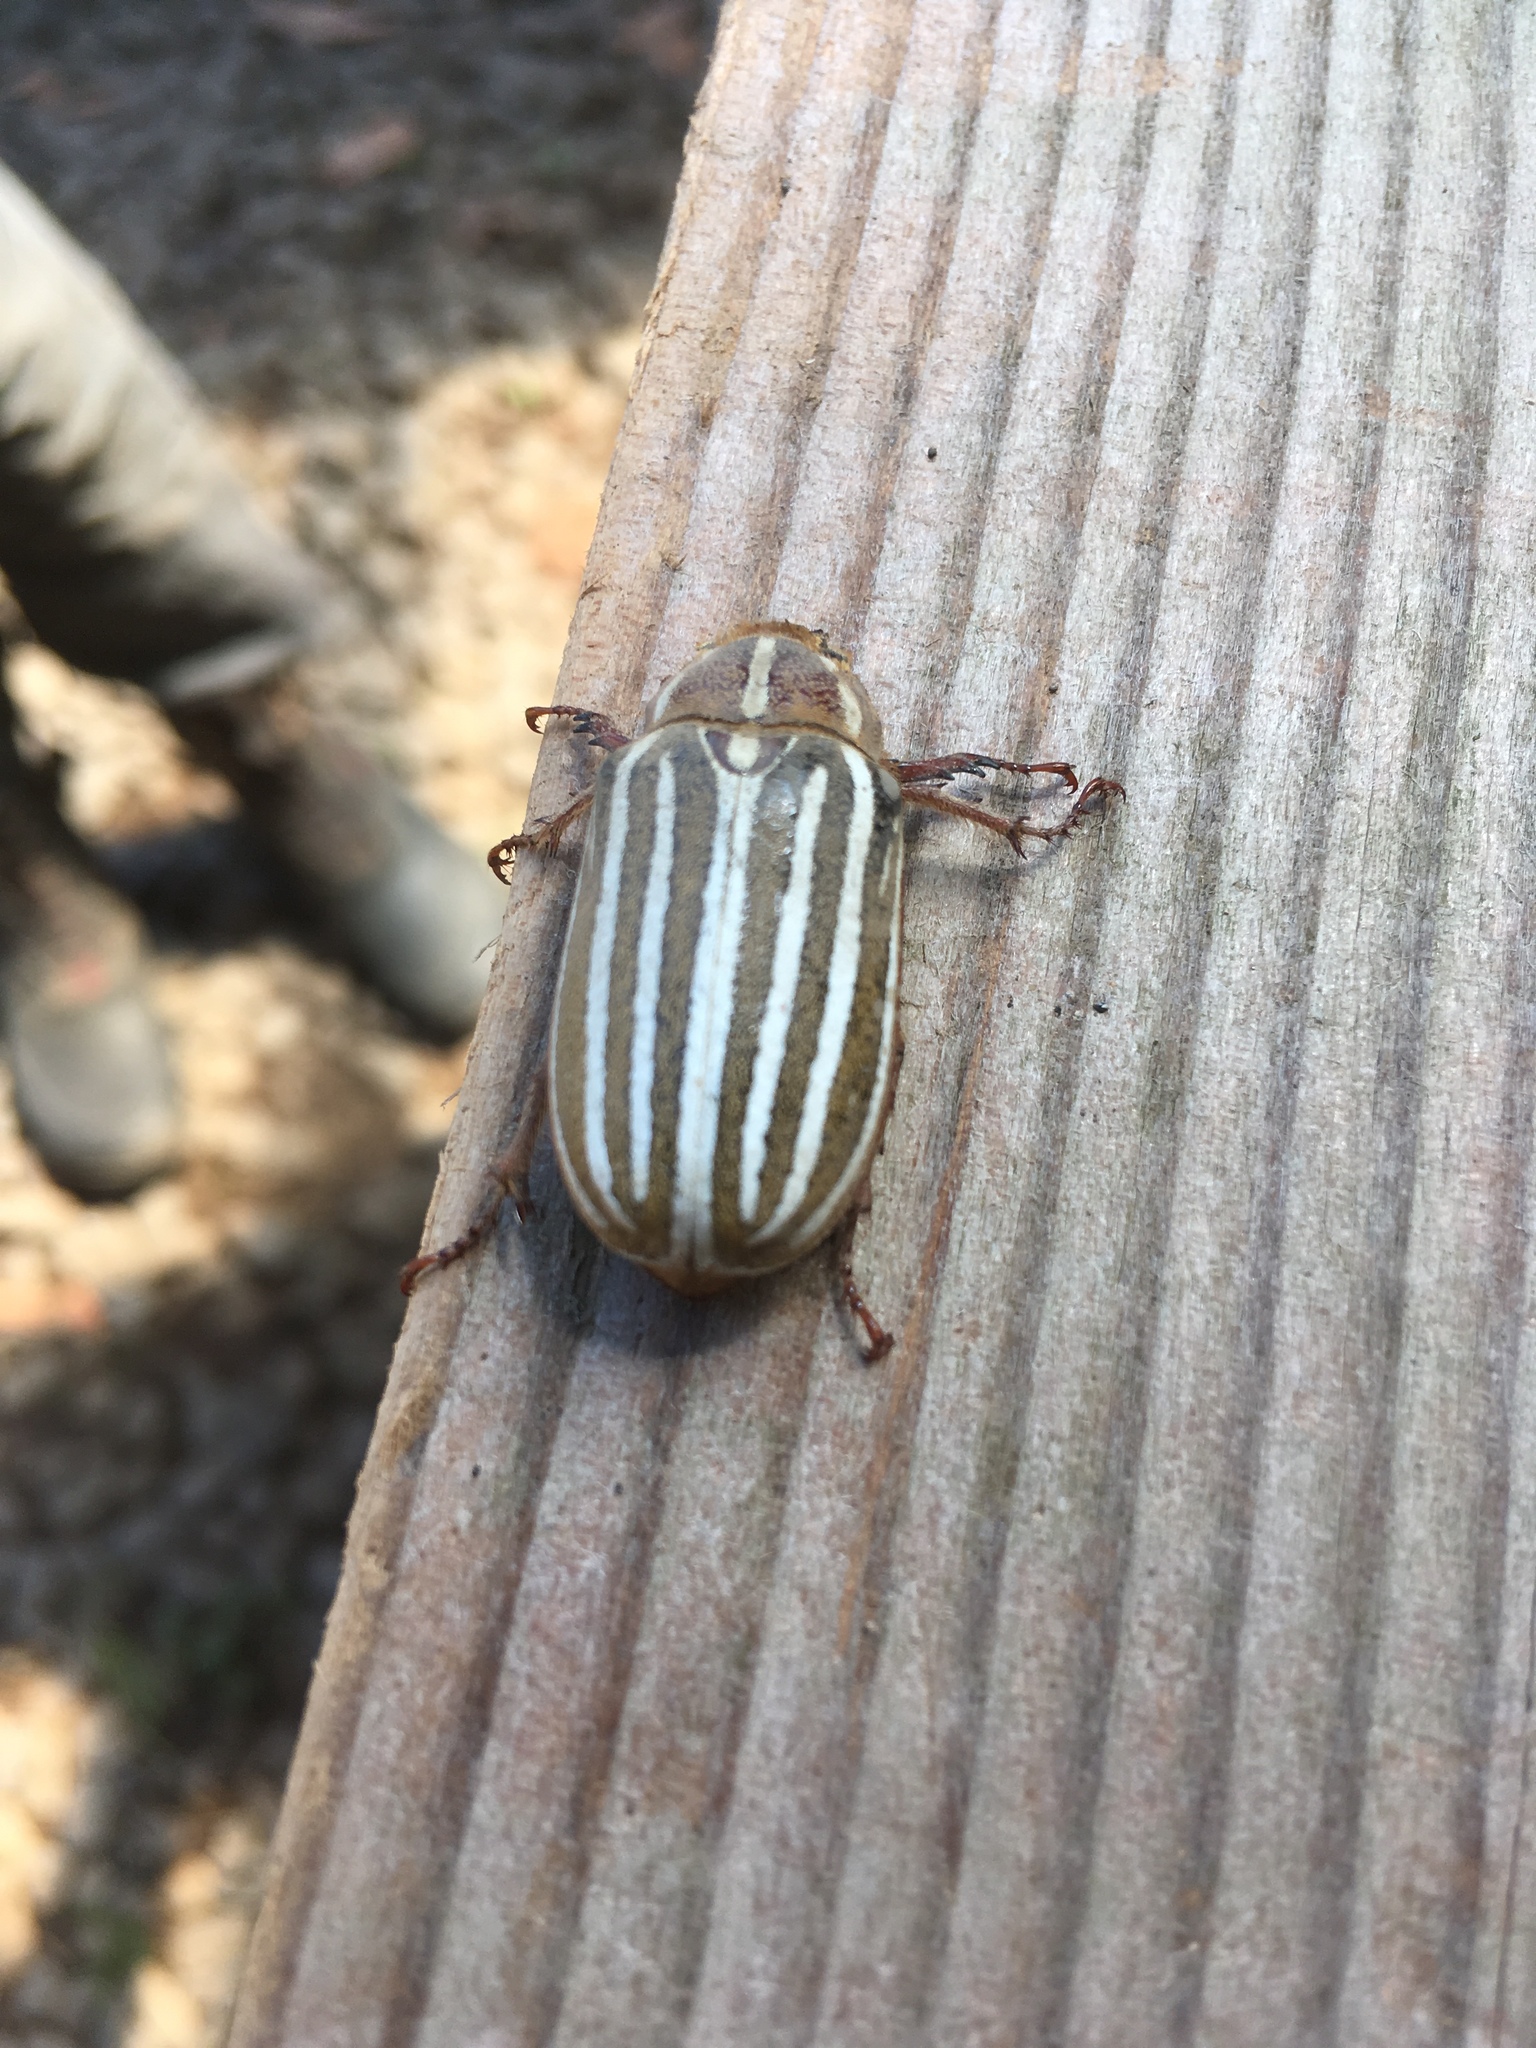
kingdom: Animalia
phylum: Arthropoda
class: Insecta
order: Coleoptera
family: Scarabaeidae
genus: Polyphylla
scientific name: Polyphylla decemlineata
